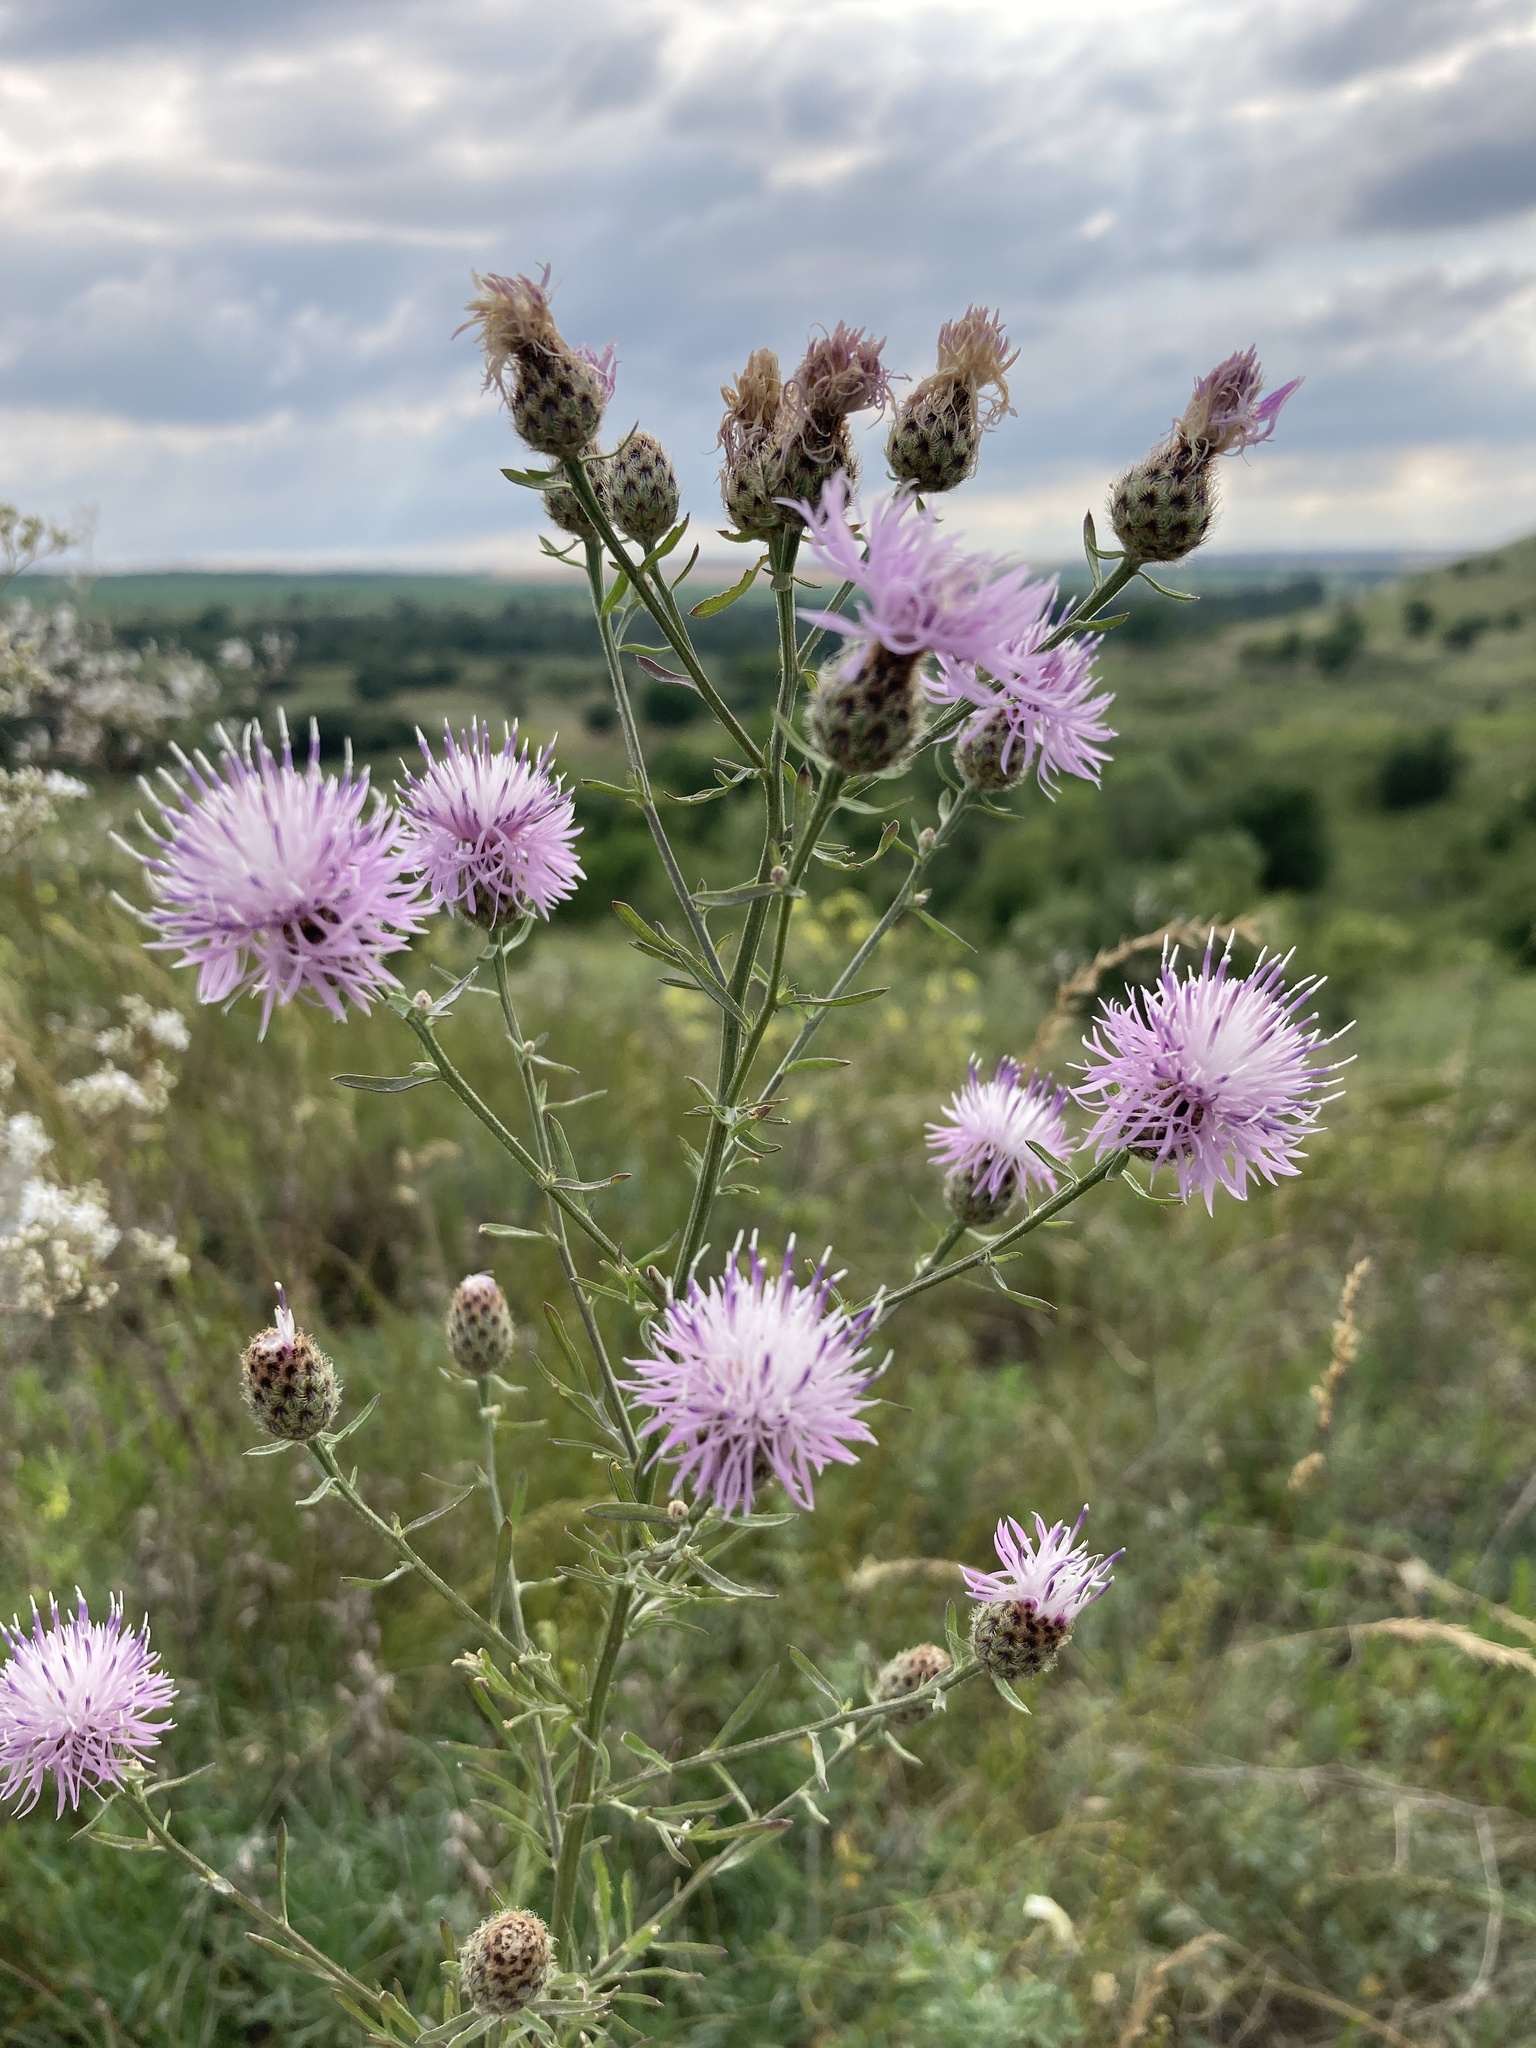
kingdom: Plantae
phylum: Tracheophyta
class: Magnoliopsida
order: Asterales
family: Asteraceae
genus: Centaurea
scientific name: Centaurea stoebe
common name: Spotted knapweed
